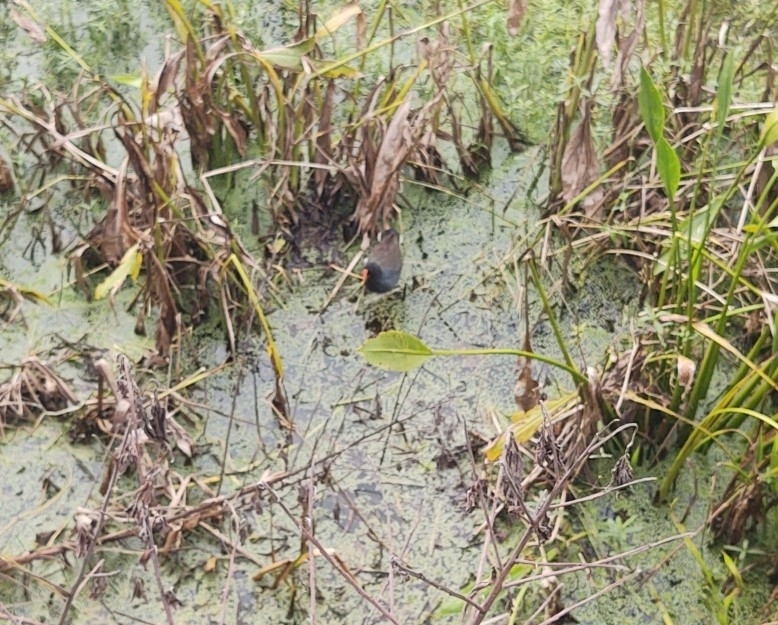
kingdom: Animalia
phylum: Chordata
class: Aves
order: Gruiformes
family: Rallidae
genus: Gallinula
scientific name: Gallinula chloropus
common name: Common moorhen
